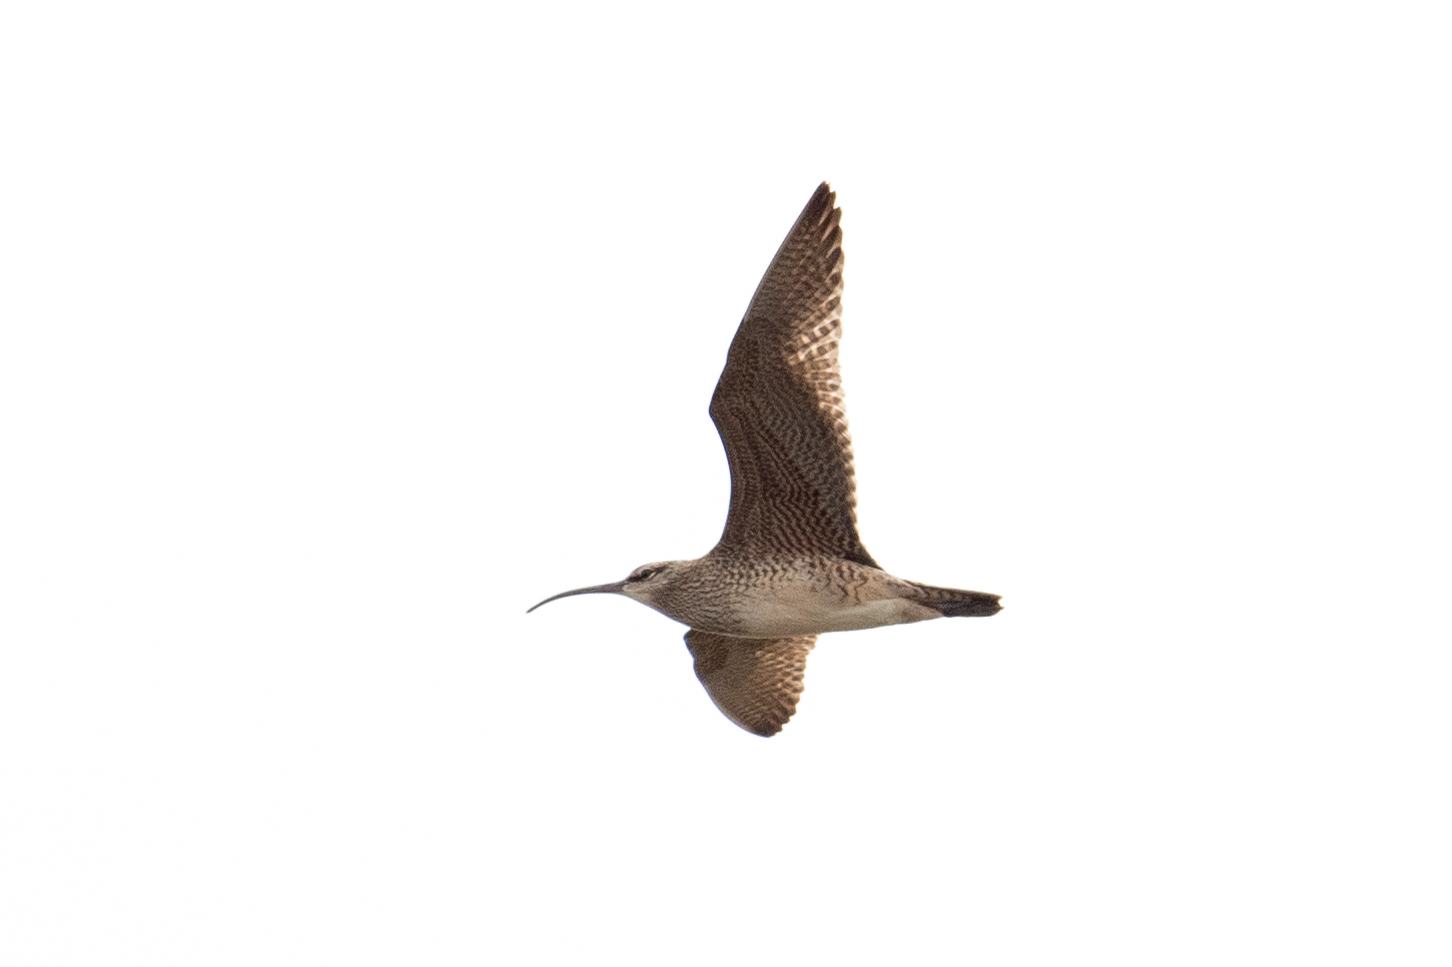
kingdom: Animalia
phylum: Chordata
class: Aves
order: Charadriiformes
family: Scolopacidae
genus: Numenius
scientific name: Numenius phaeopus
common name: Whimbrel
